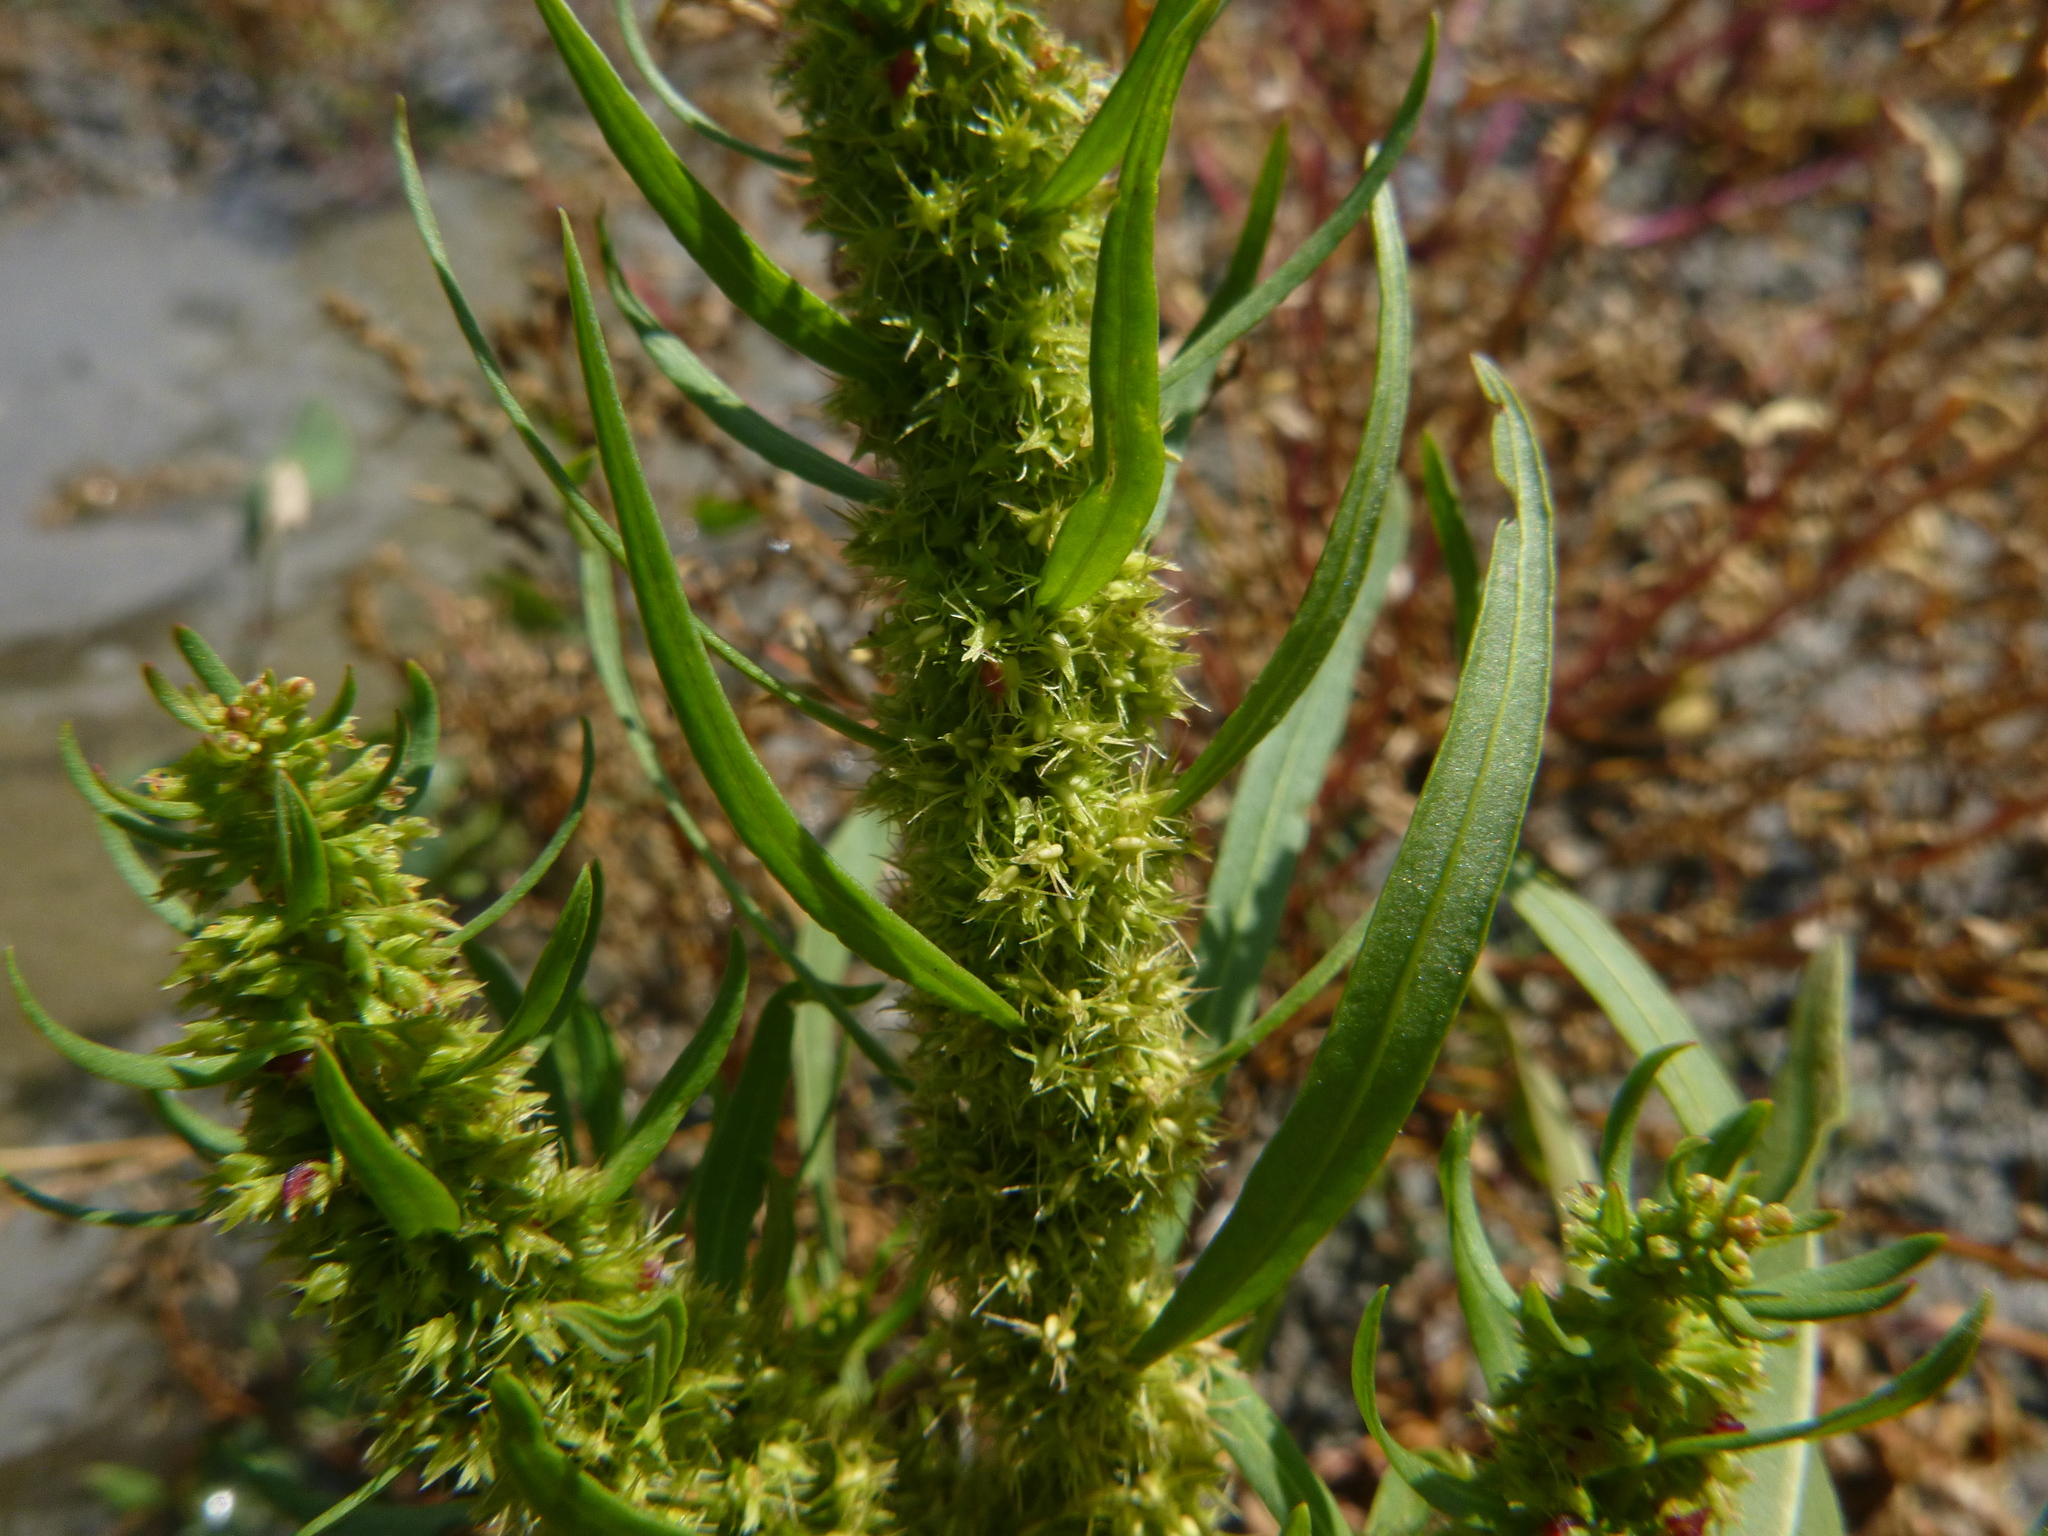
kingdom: Plantae
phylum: Tracheophyta
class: Magnoliopsida
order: Caryophyllales
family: Polygonaceae
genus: Rumex
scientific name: Rumex maritimus
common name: Golden dock
